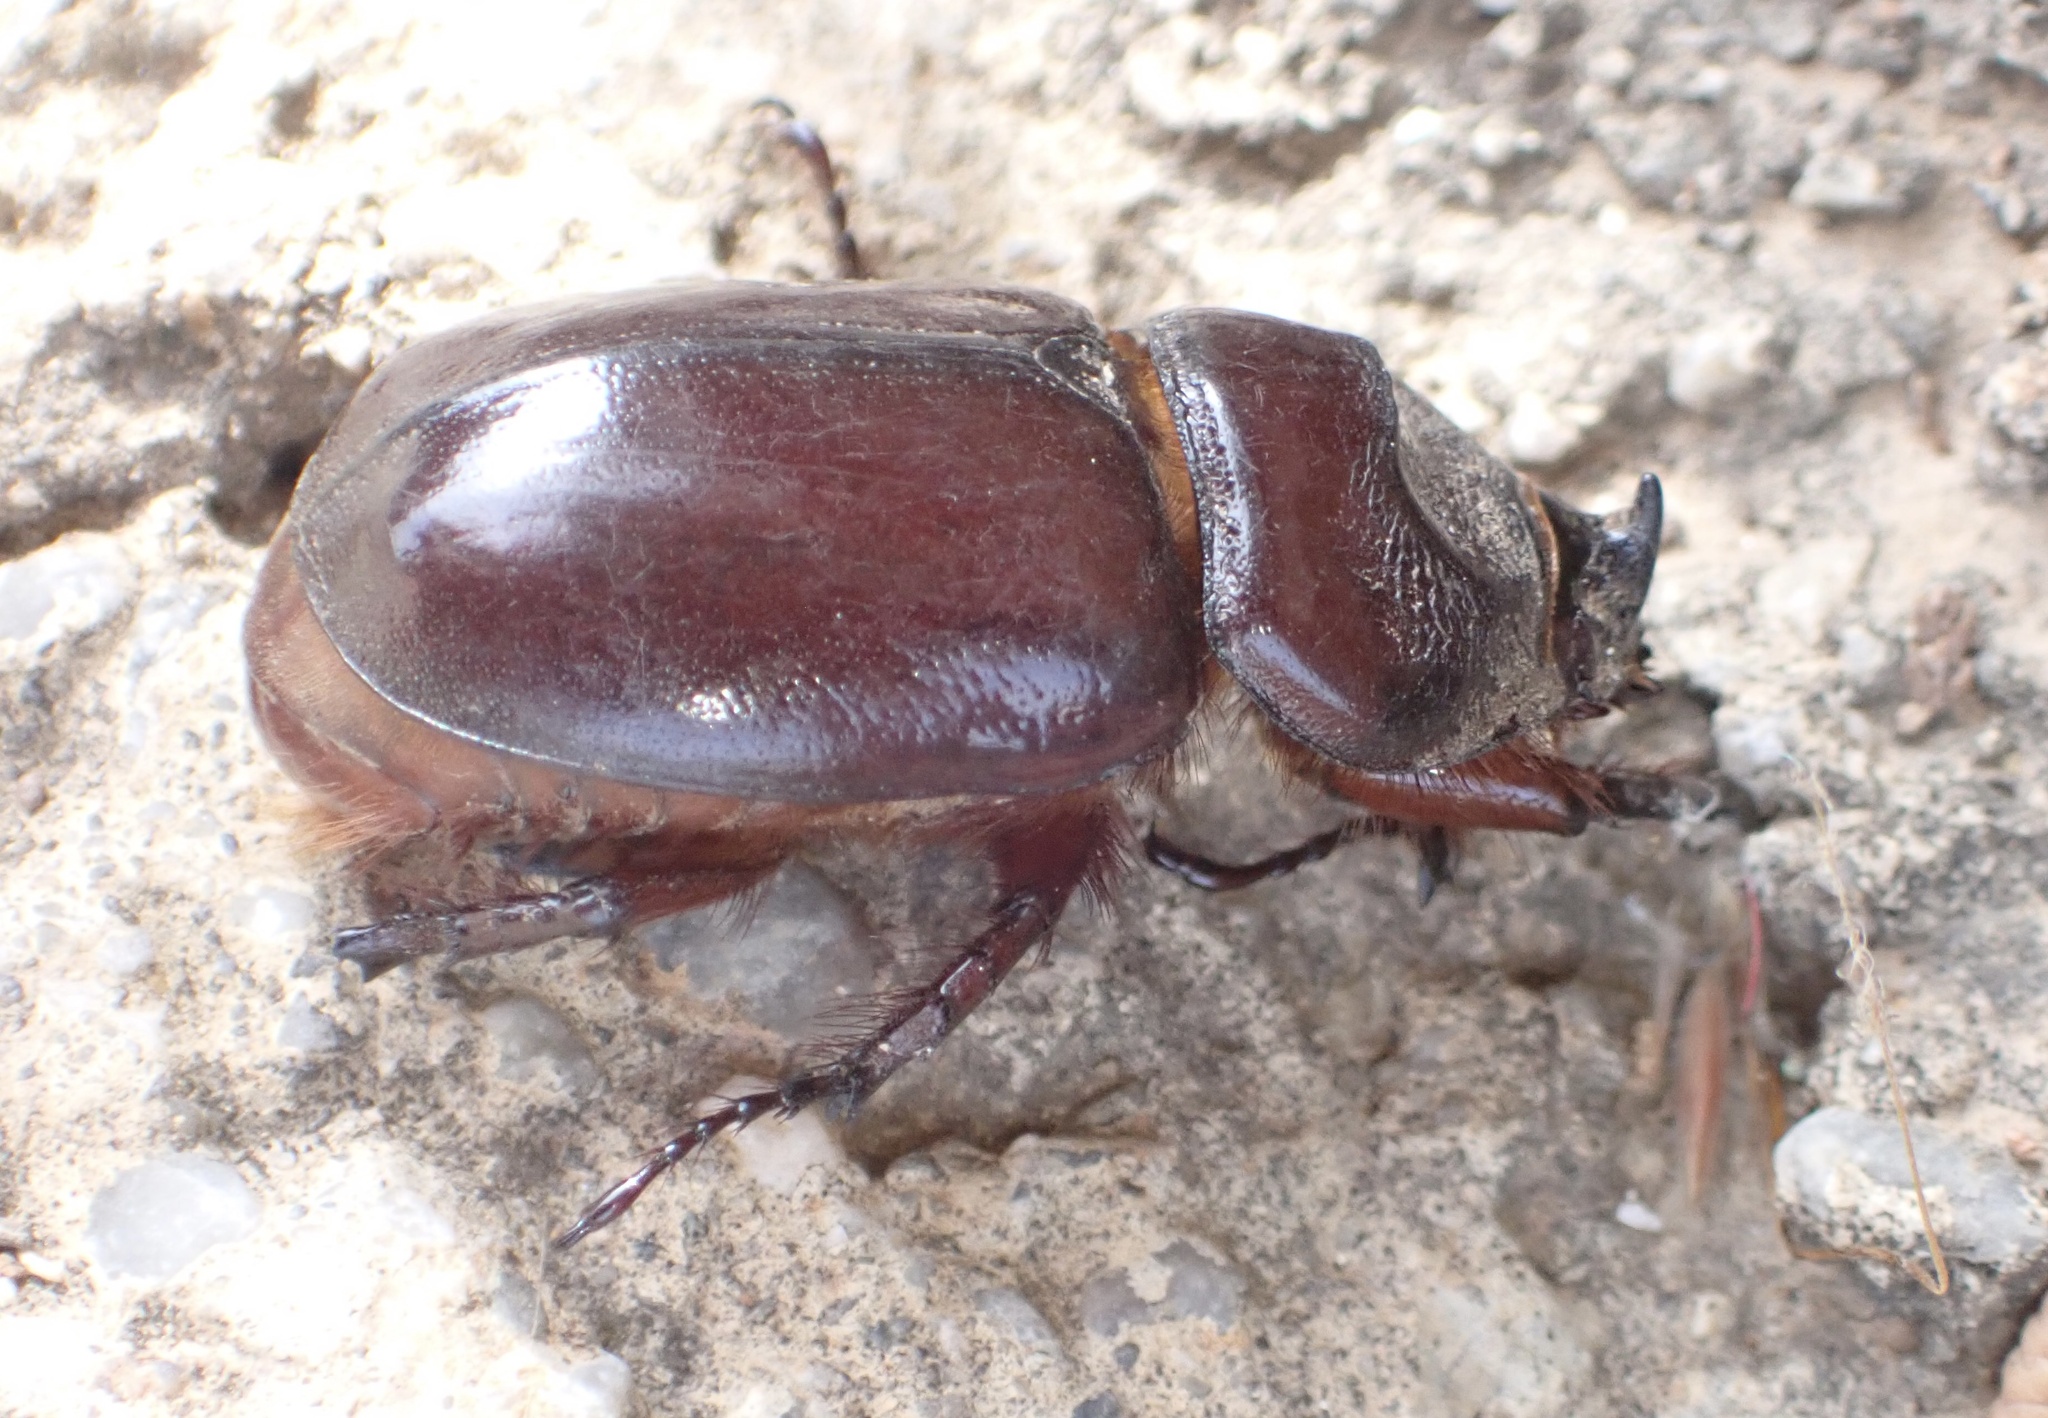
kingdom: Animalia
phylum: Arthropoda
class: Insecta
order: Coleoptera
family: Scarabaeidae
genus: Oryctes
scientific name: Oryctes nasicornis
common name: European rhinoceros beetle
